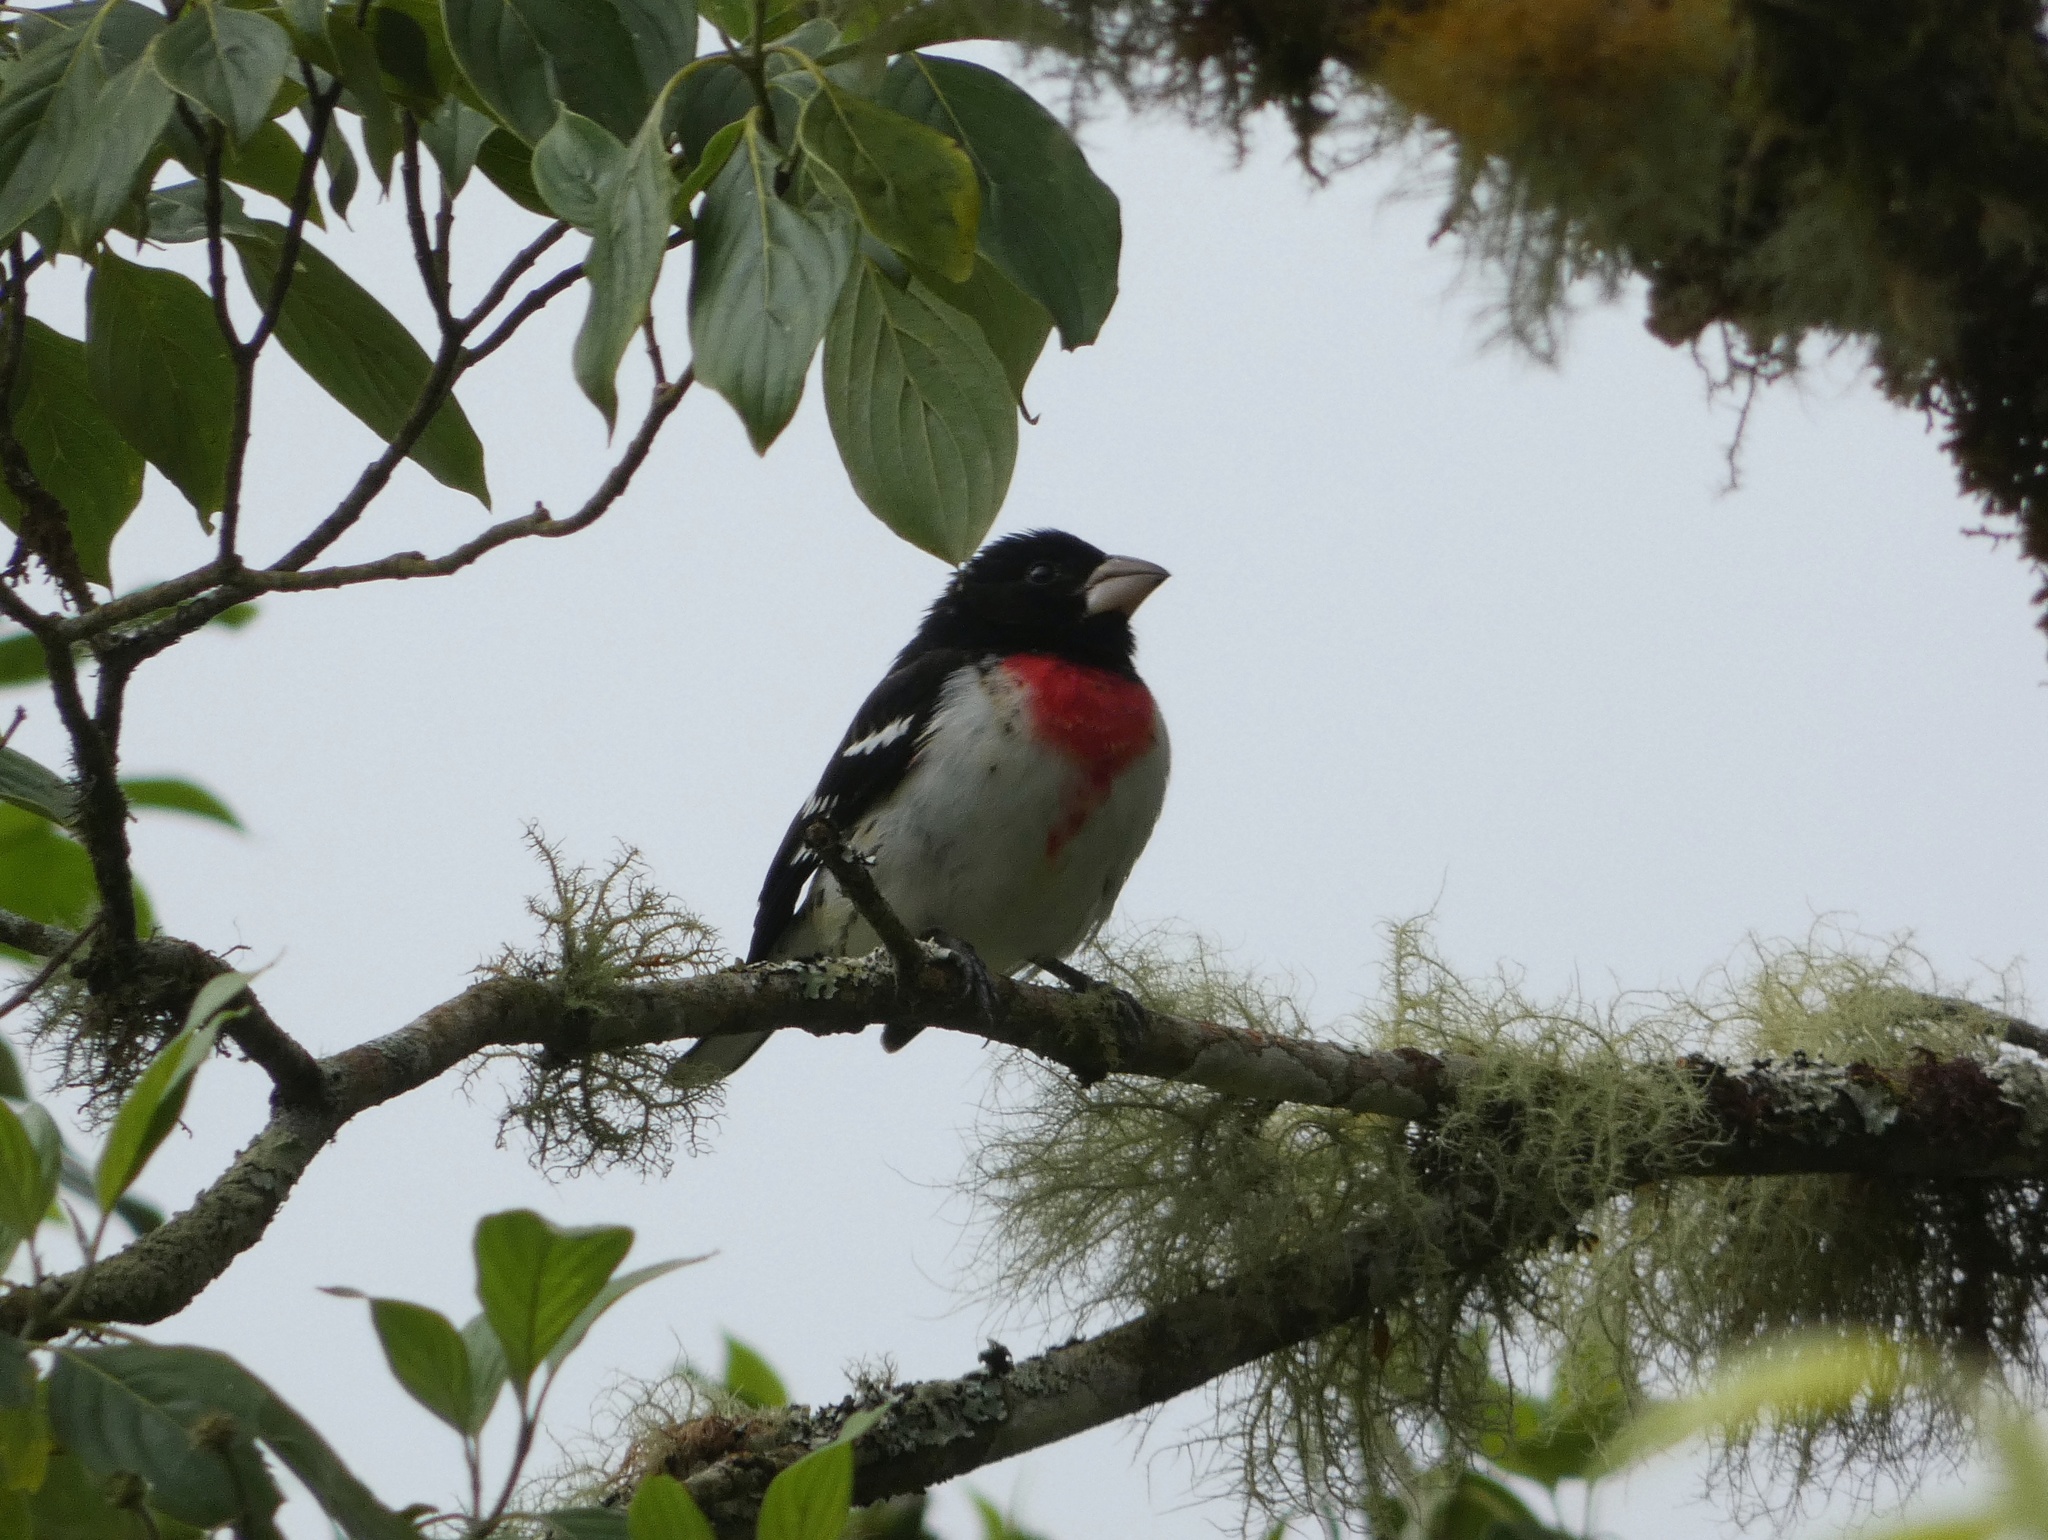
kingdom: Animalia
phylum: Chordata
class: Aves
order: Passeriformes
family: Cardinalidae
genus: Pheucticus
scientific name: Pheucticus ludovicianus
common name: Rose-breasted grosbeak
